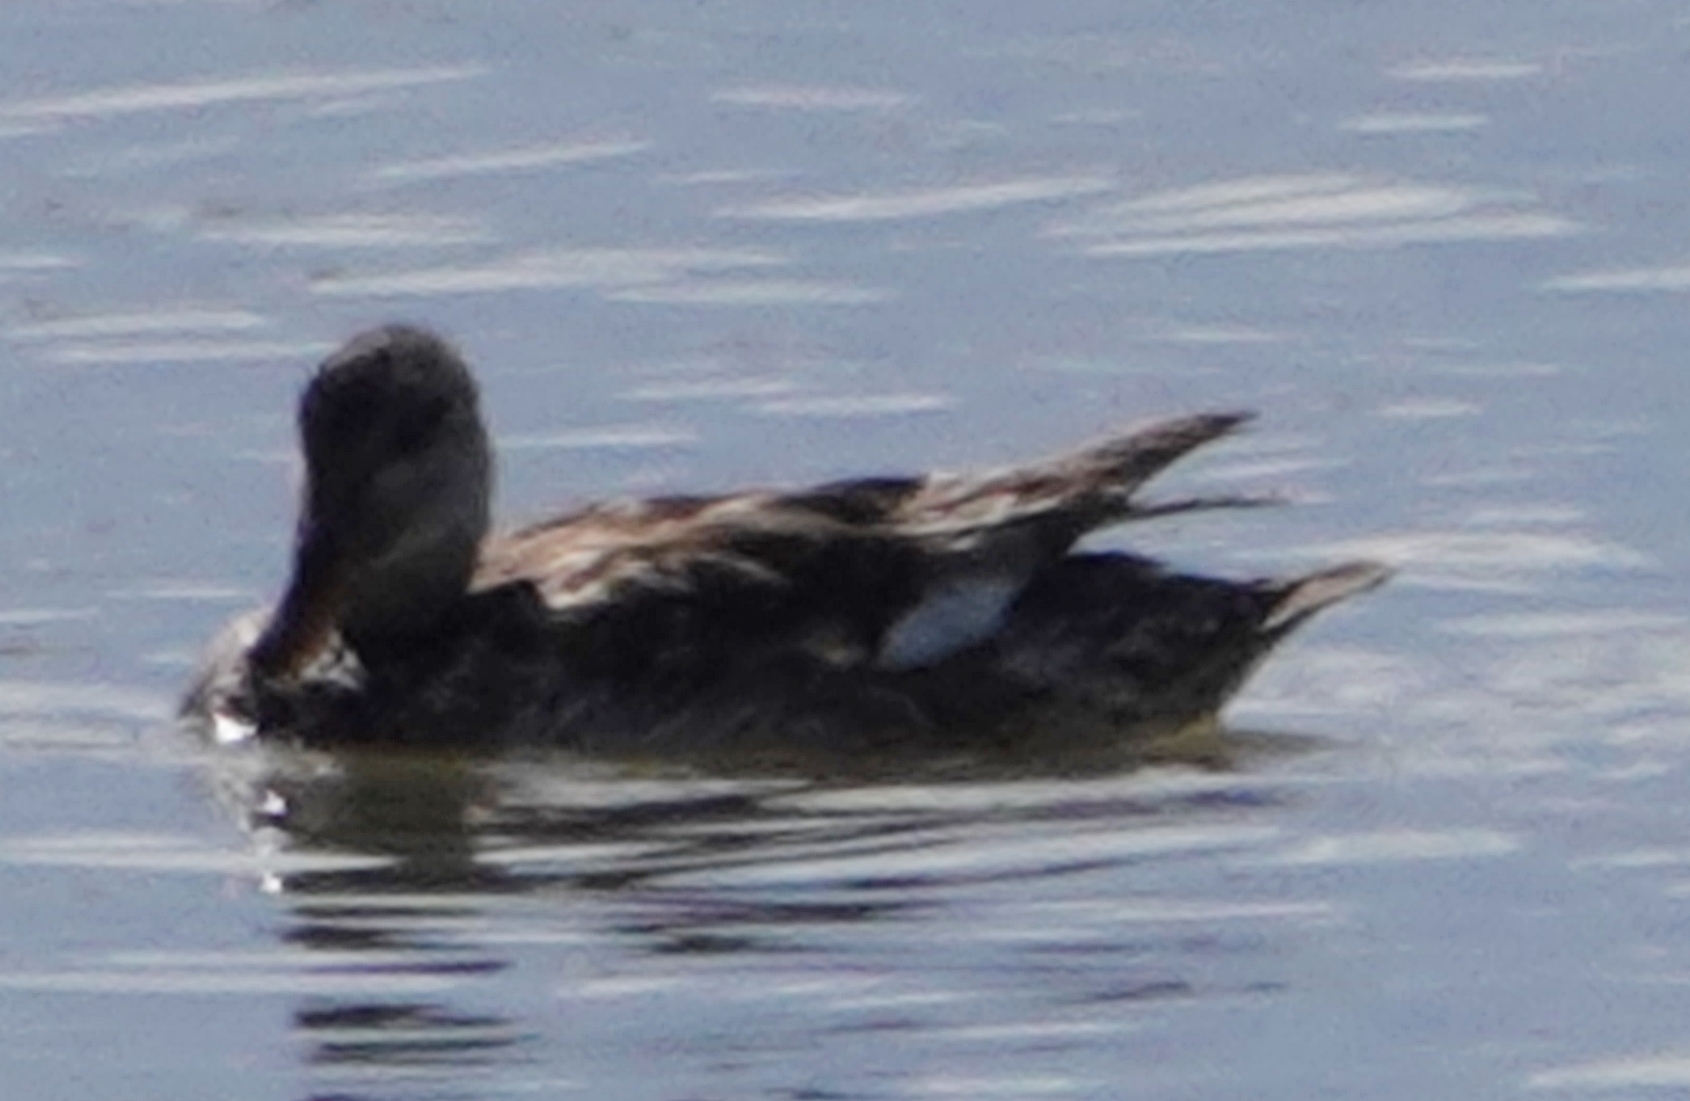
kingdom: Animalia
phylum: Chordata
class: Aves
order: Anseriformes
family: Anatidae
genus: Mareca
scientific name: Mareca strepera
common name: Gadwall
